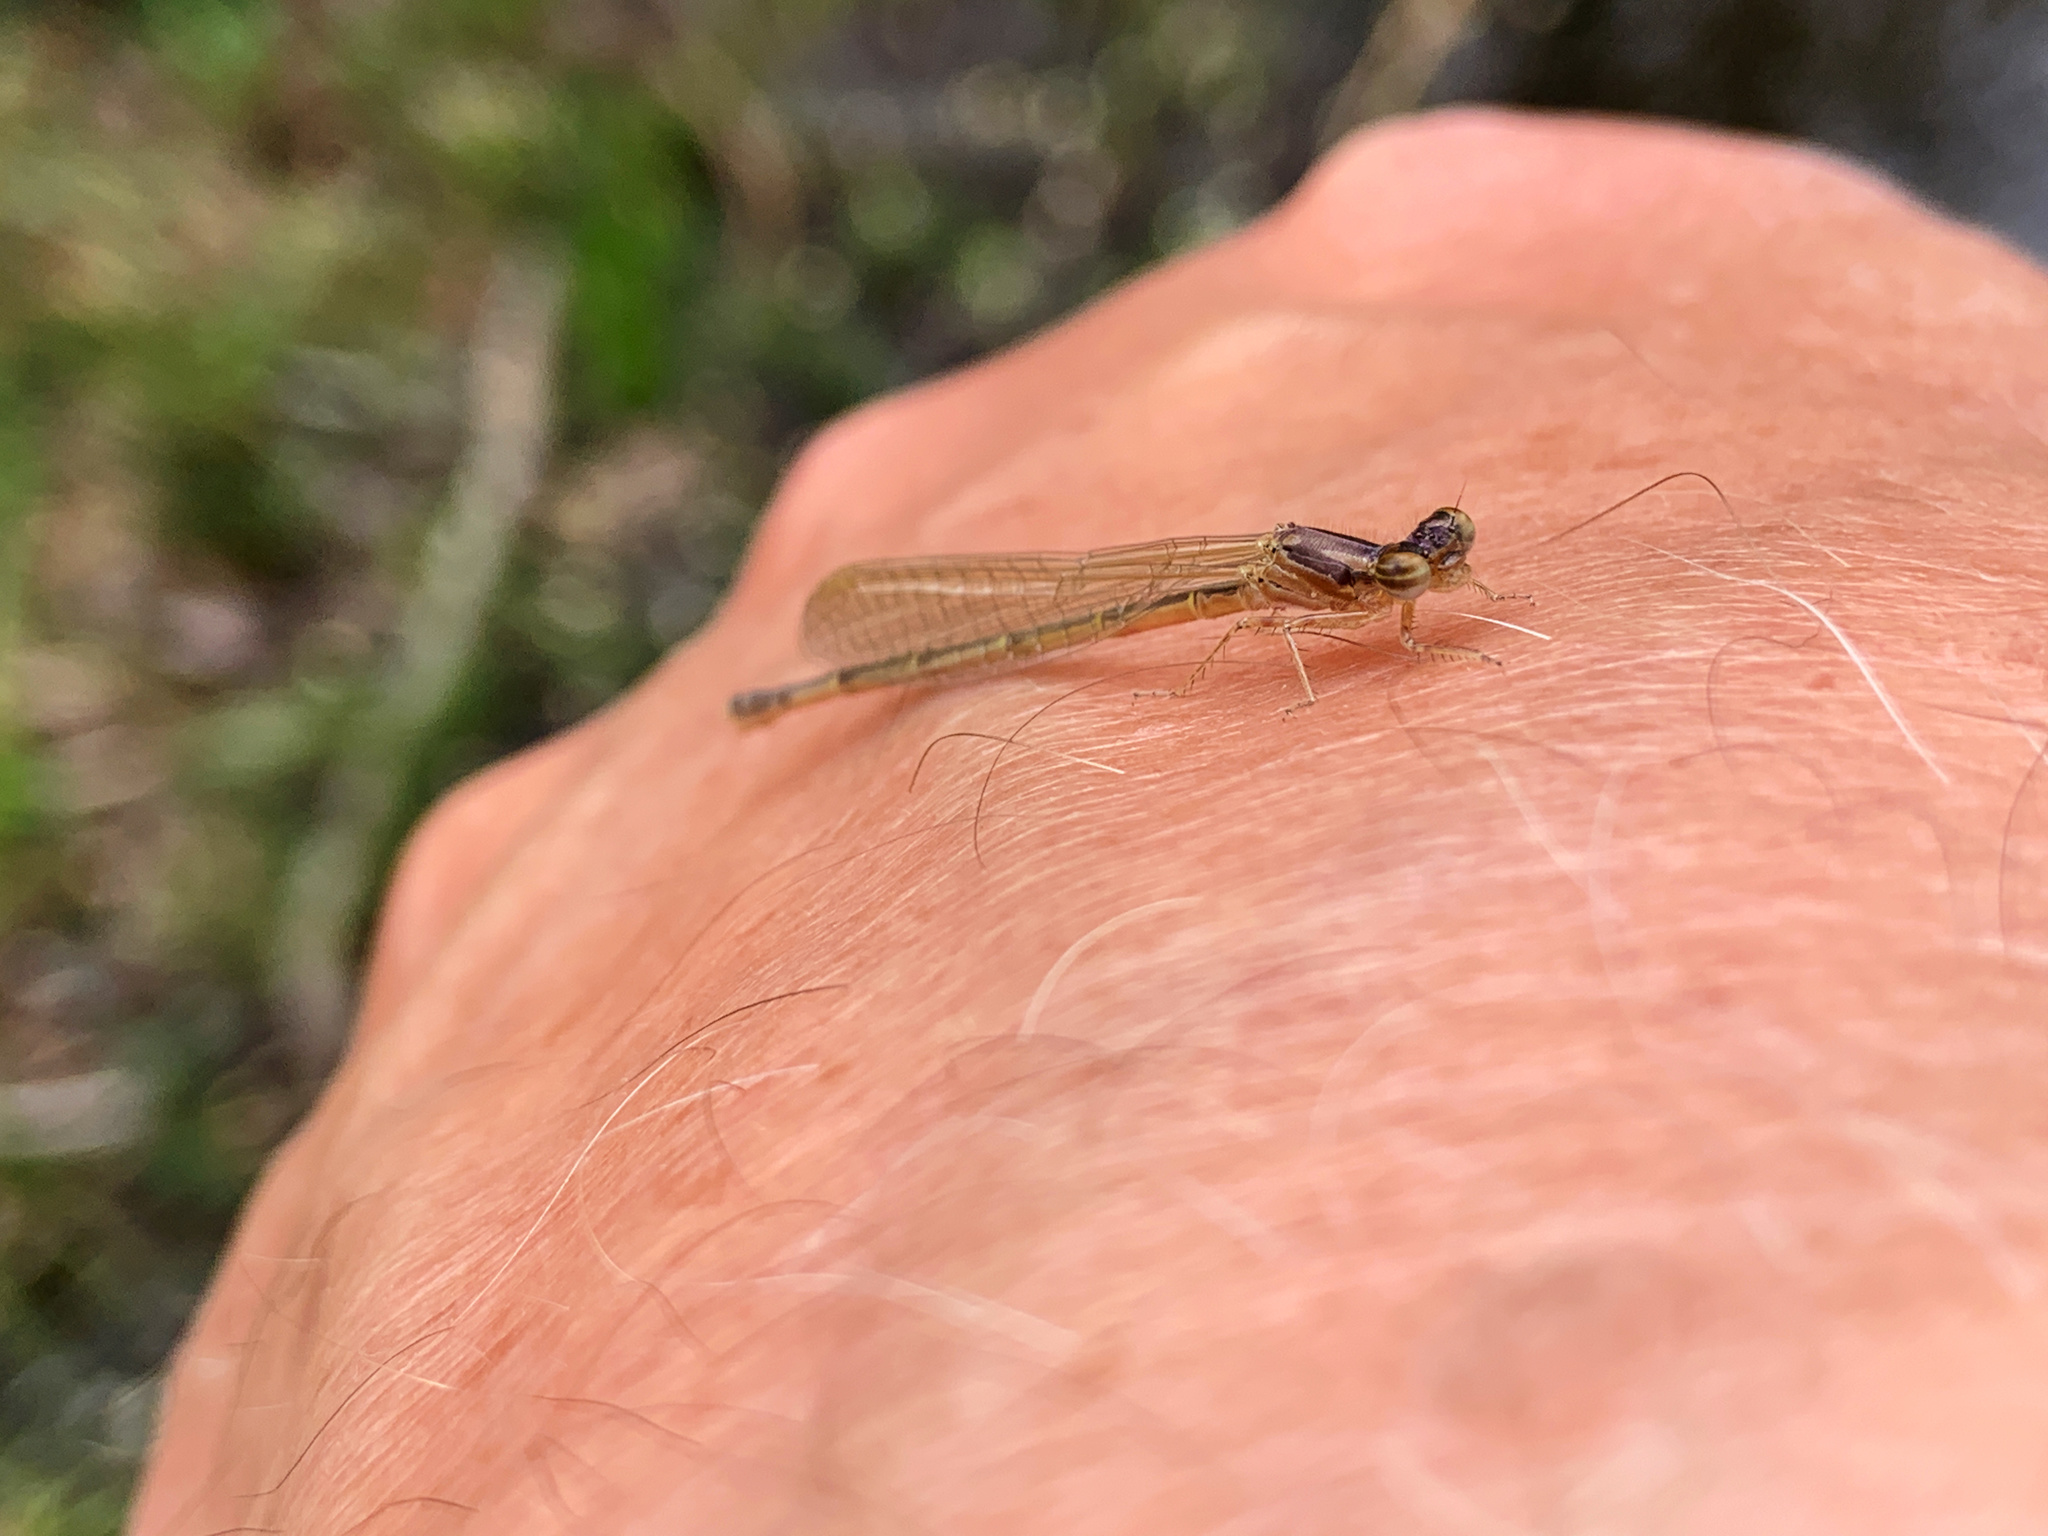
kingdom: Animalia
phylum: Arthropoda
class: Insecta
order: Odonata
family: Coenagrionidae
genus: Ischnura
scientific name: Ischnura posita
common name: Fragile forktail
